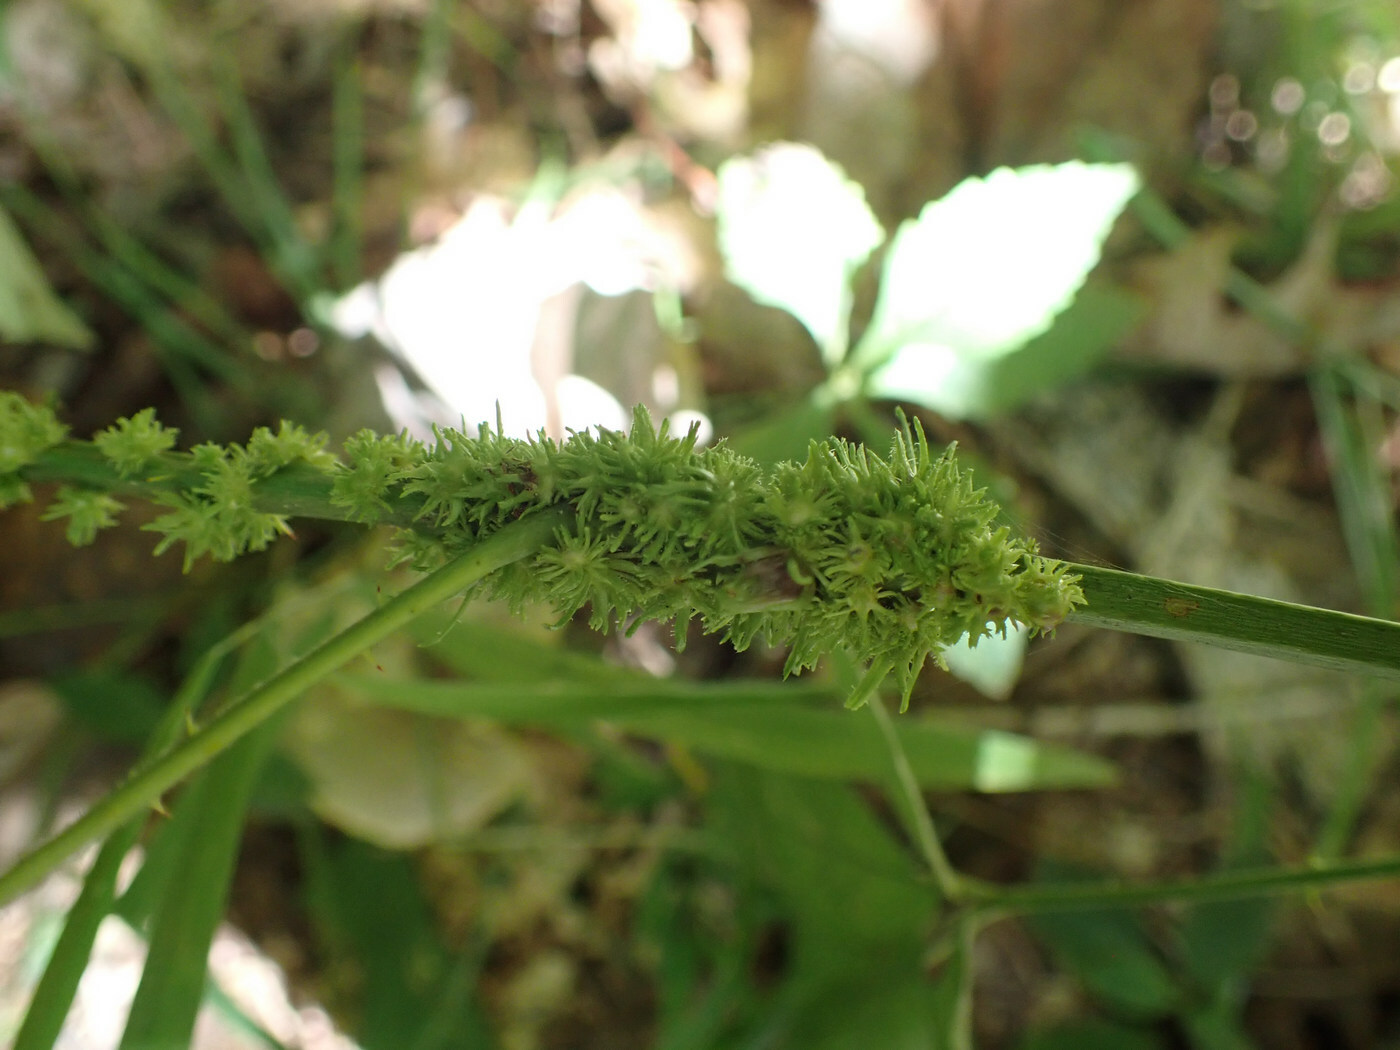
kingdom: Animalia
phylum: Arthropoda
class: Insecta
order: Hymenoptera
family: Cynipidae
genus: Diastrophus
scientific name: Diastrophus
